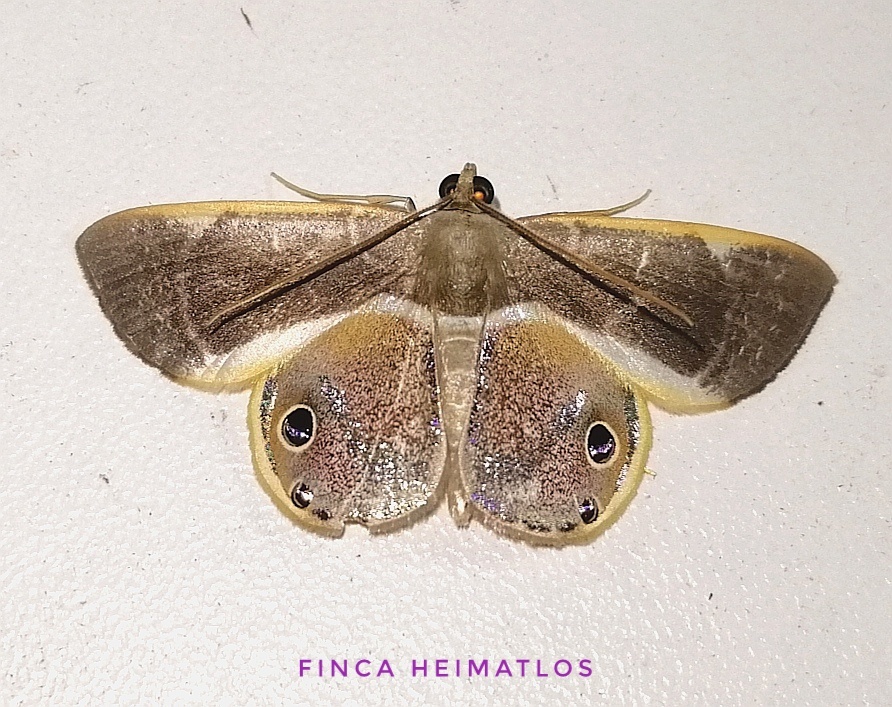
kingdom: Animalia
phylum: Arthropoda
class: Insecta
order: Lepidoptera
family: Geometridae
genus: Opisthoxia
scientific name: Opisthoxia corinnaria
